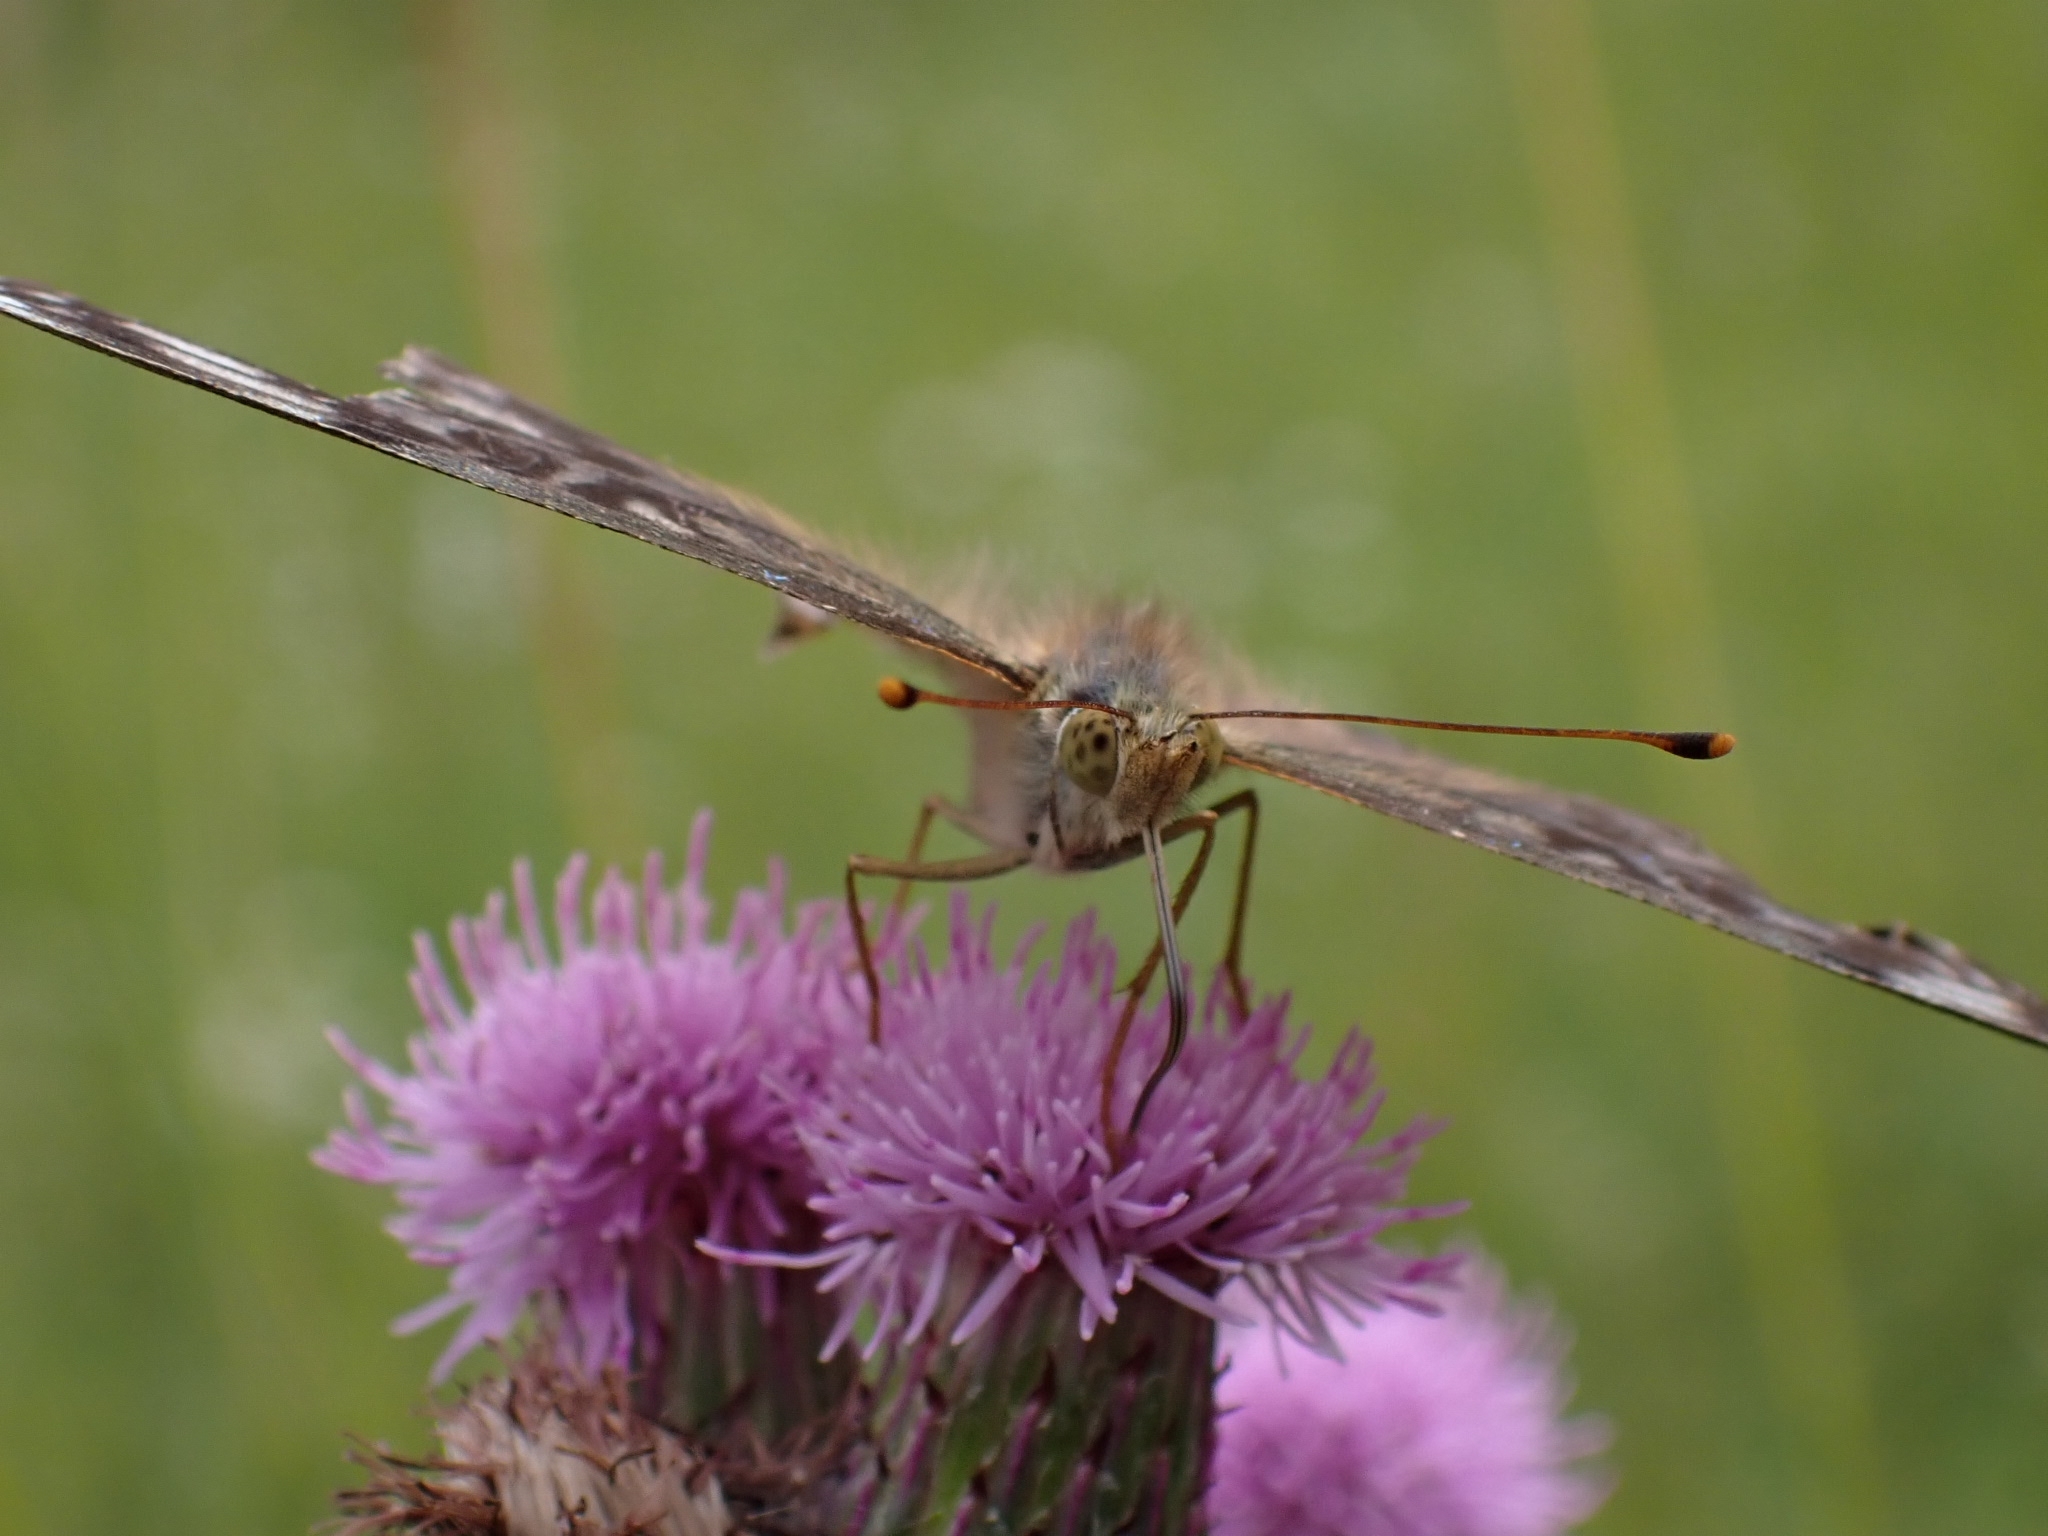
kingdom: Animalia
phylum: Arthropoda
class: Insecta
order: Lepidoptera
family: Nymphalidae
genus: Argynnis
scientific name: Argynnis paphia
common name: Silver-washed fritillary
